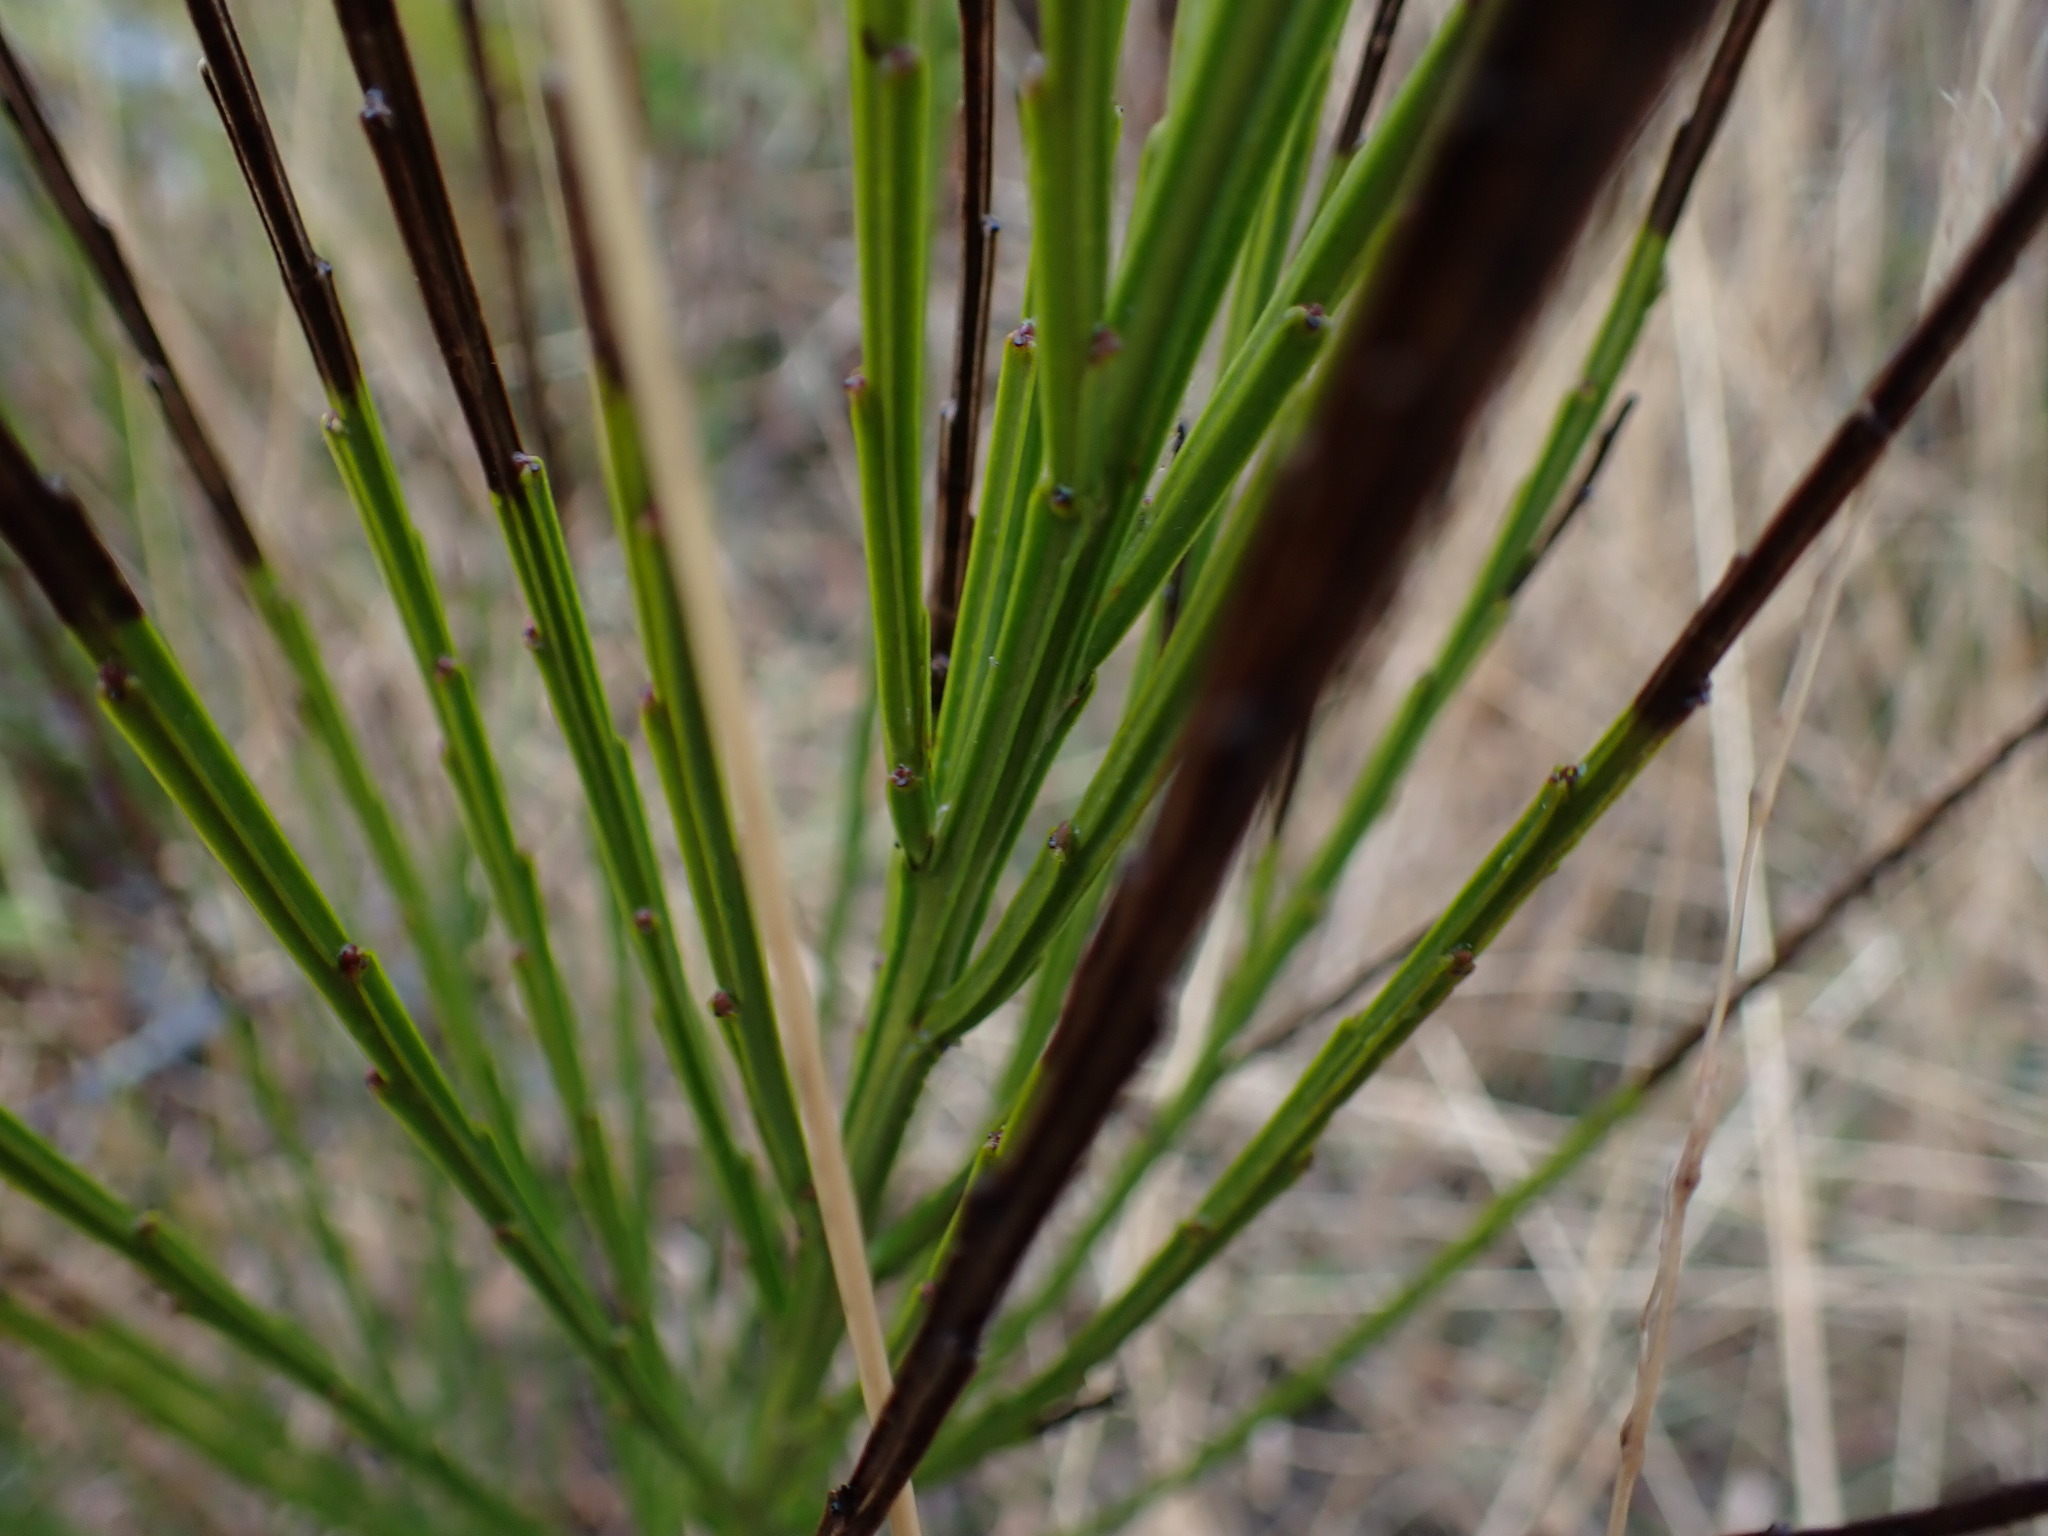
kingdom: Plantae
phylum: Tracheophyta
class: Magnoliopsida
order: Fabales
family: Fabaceae
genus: Cytisus
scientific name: Cytisus scoparius
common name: Scotch broom
